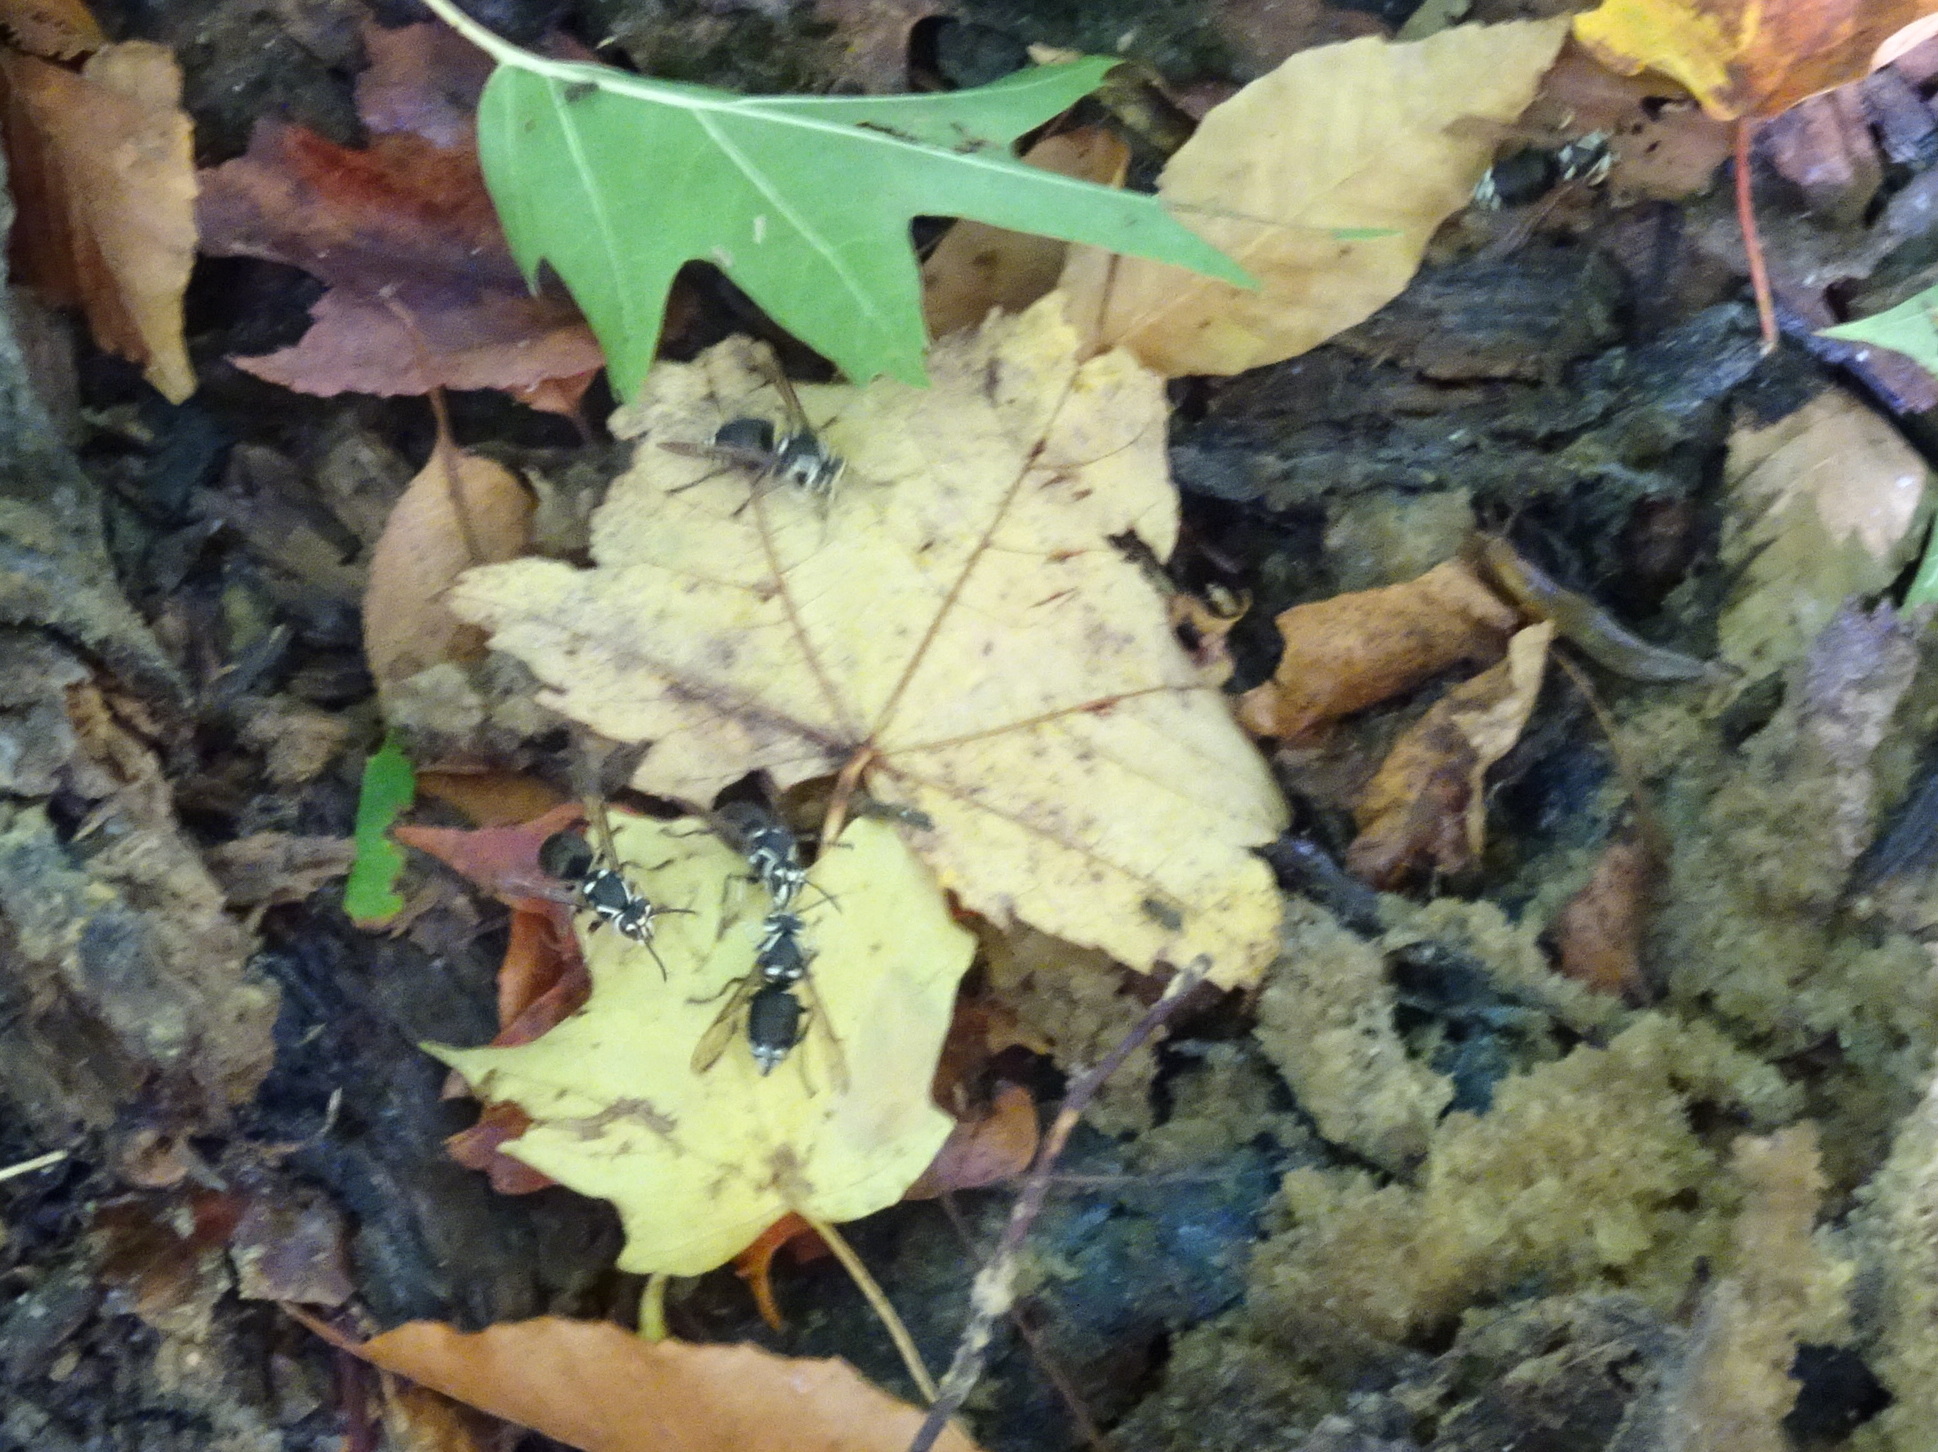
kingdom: Animalia
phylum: Arthropoda
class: Insecta
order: Hymenoptera
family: Vespidae
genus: Dolichovespula
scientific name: Dolichovespula maculata
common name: Bald-faced hornet
